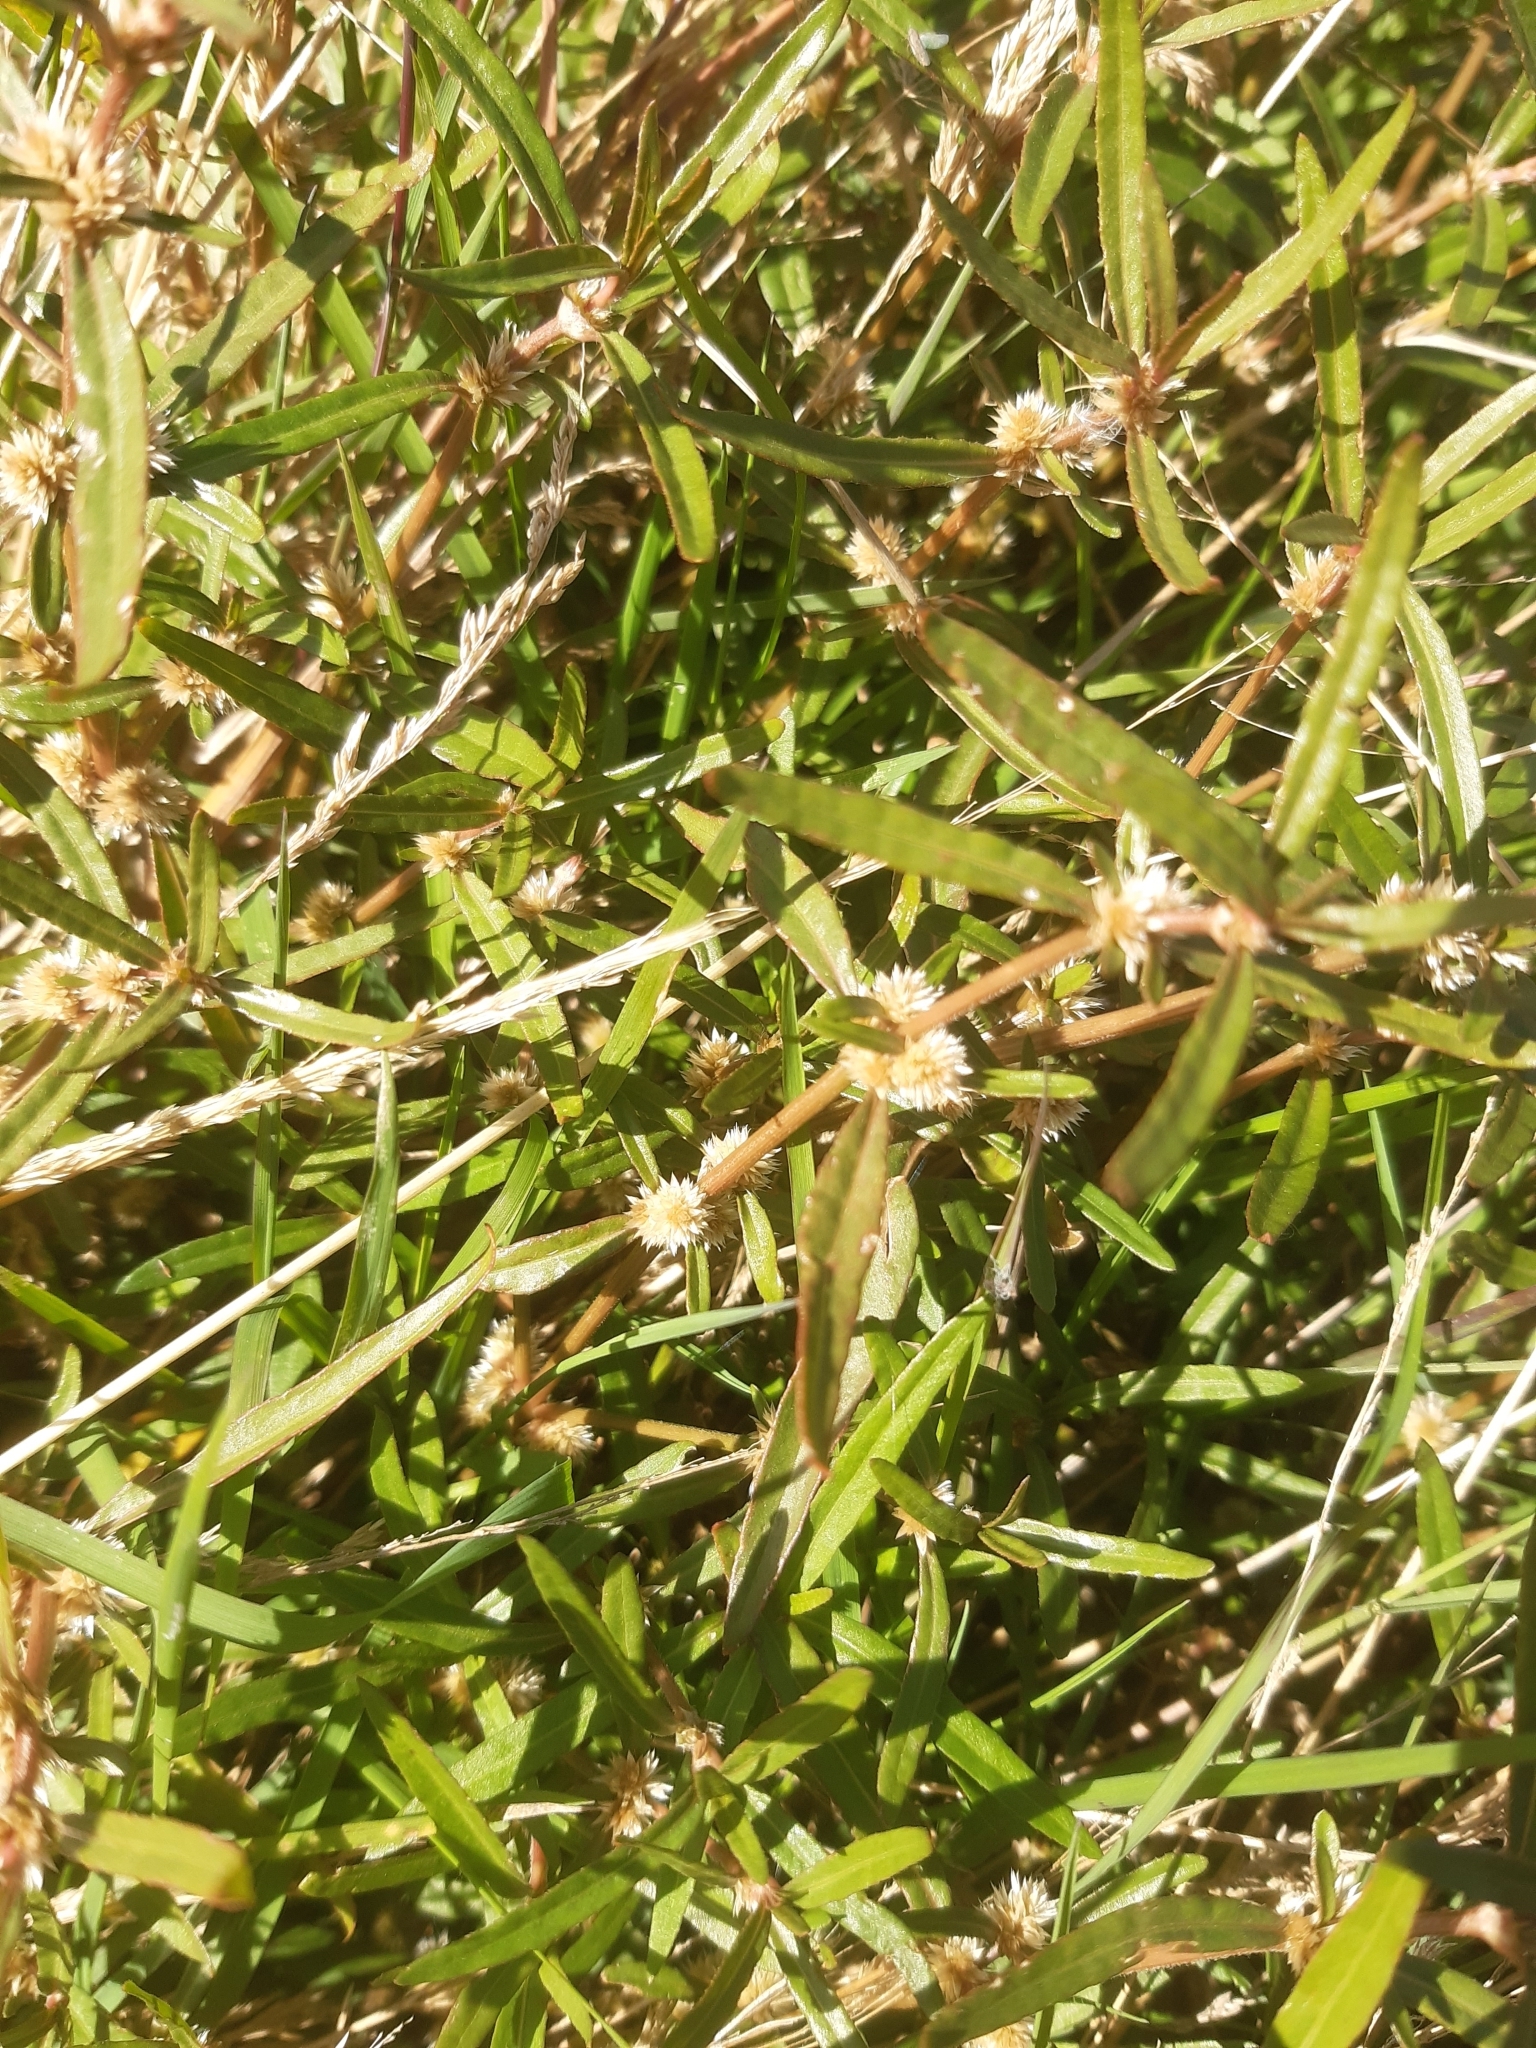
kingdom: Plantae
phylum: Tracheophyta
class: Magnoliopsida
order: Caryophyllales
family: Amaranthaceae
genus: Alternanthera
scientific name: Alternanthera nahui
